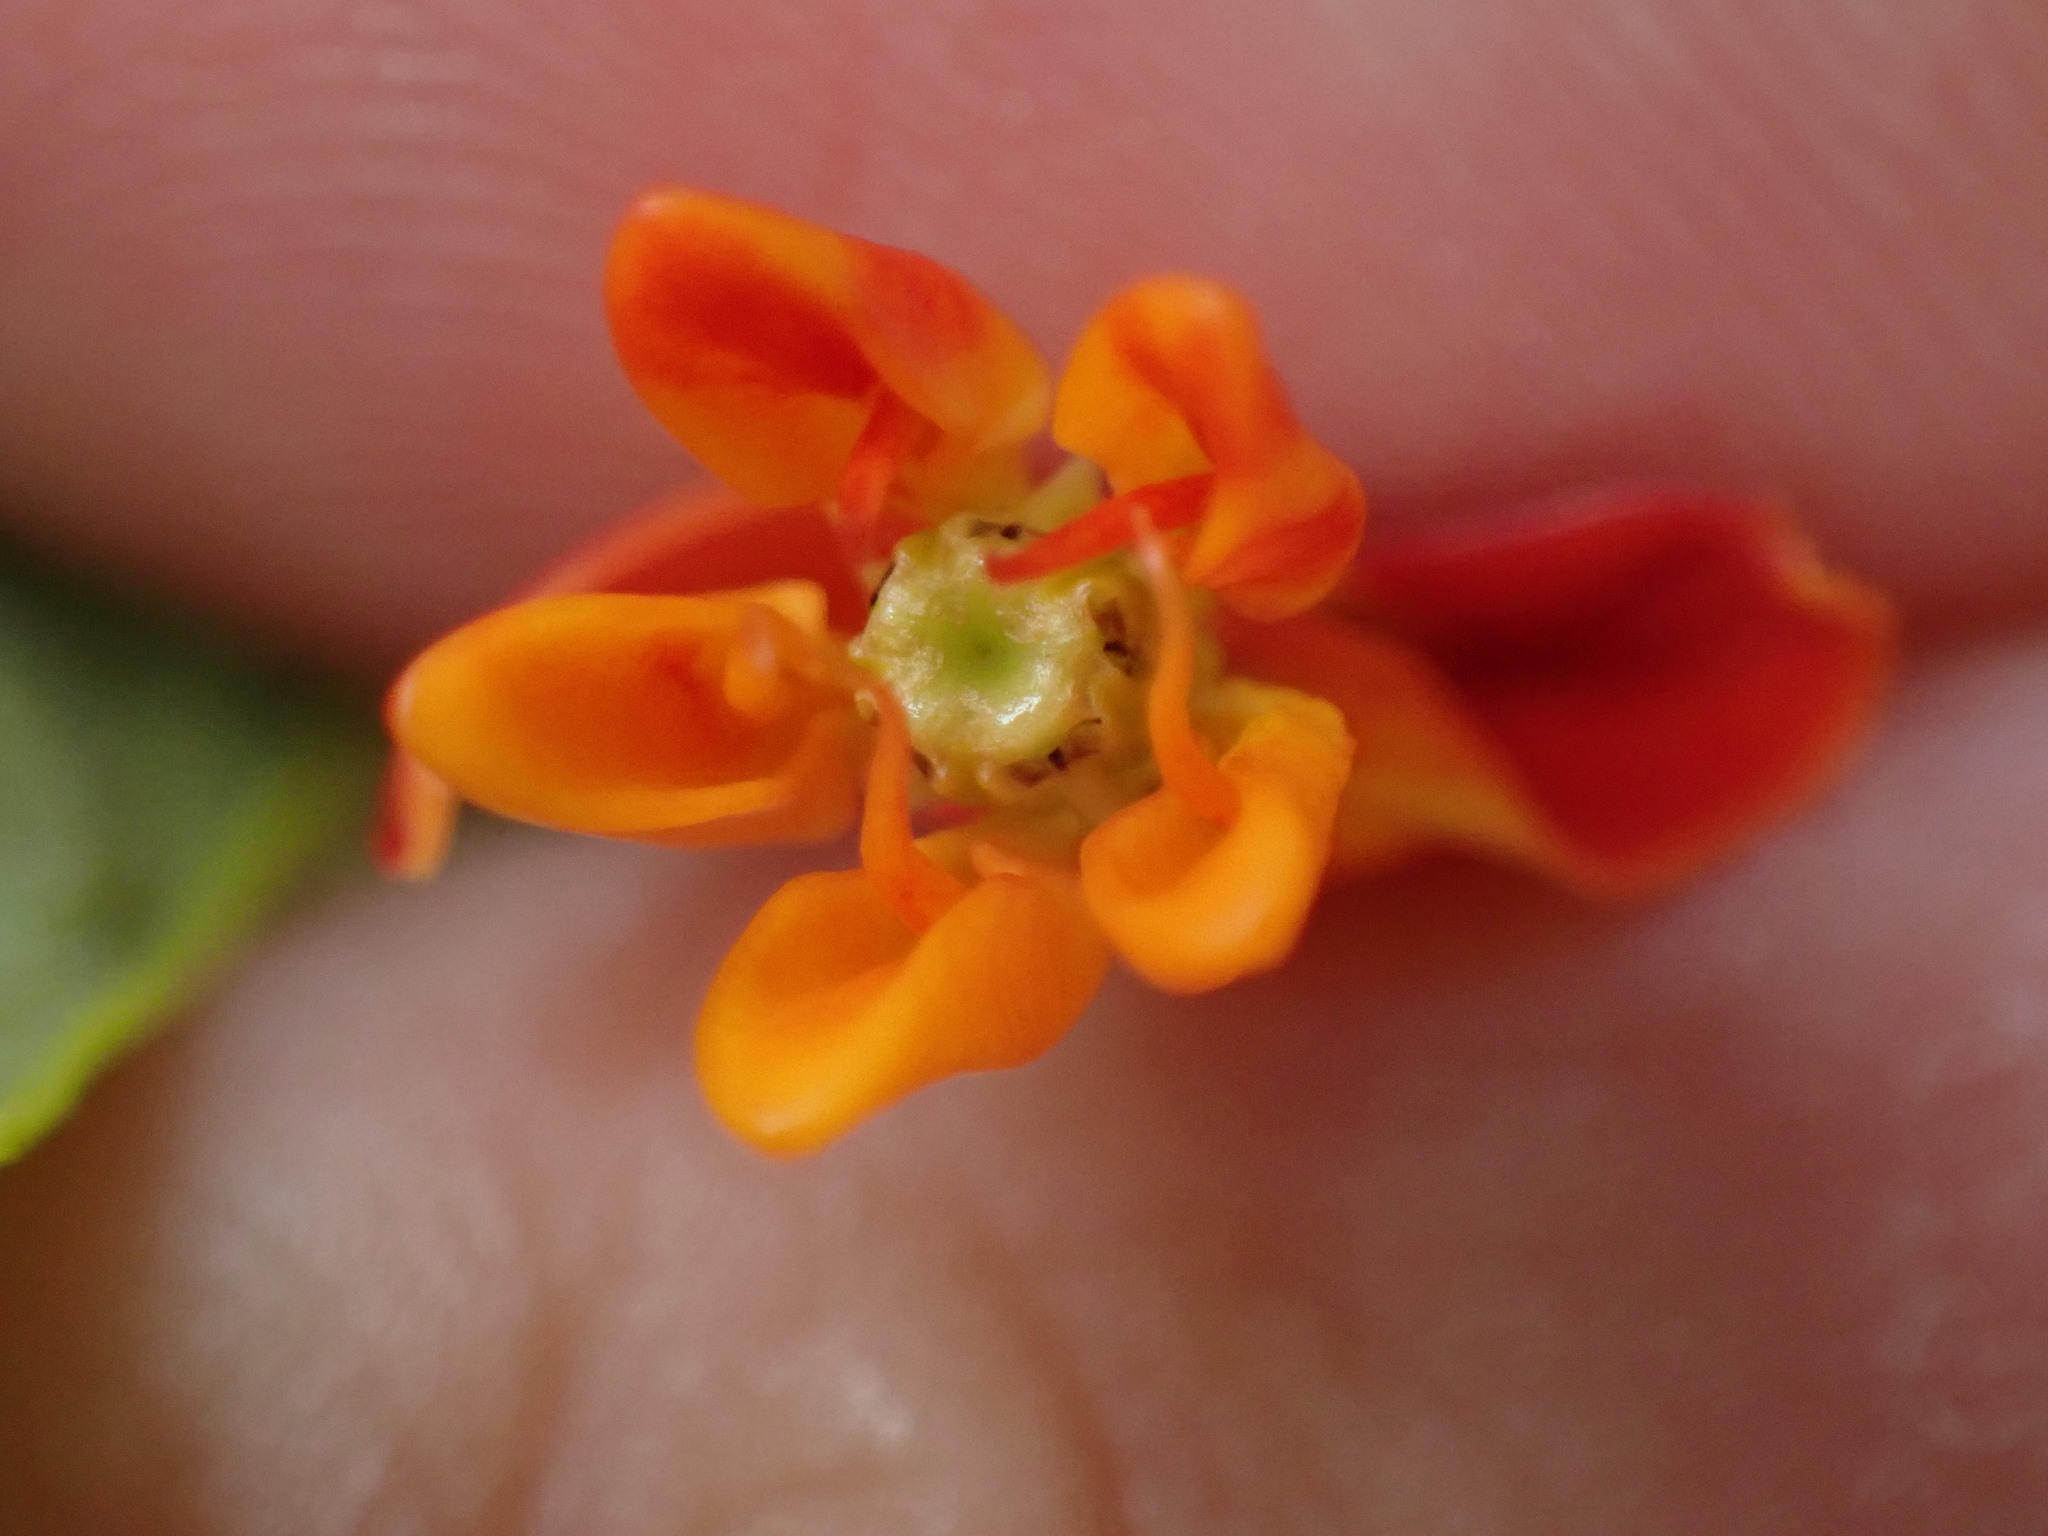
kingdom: Plantae
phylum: Tracheophyta
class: Magnoliopsida
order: Gentianales
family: Apocynaceae
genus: Asclepias
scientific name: Asclepias tuberosa
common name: Butterfly milkweed
